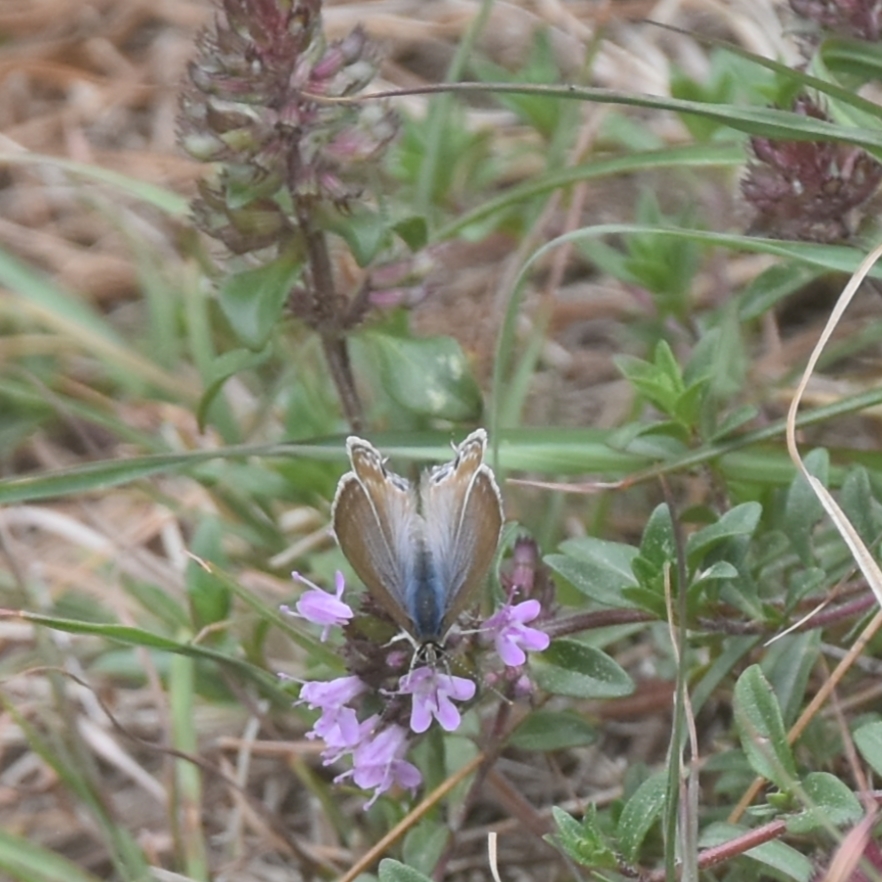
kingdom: Animalia
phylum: Arthropoda
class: Insecta
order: Lepidoptera
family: Lycaenidae
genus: Lampides
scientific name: Lampides boeticus
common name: Long-tailed blue
